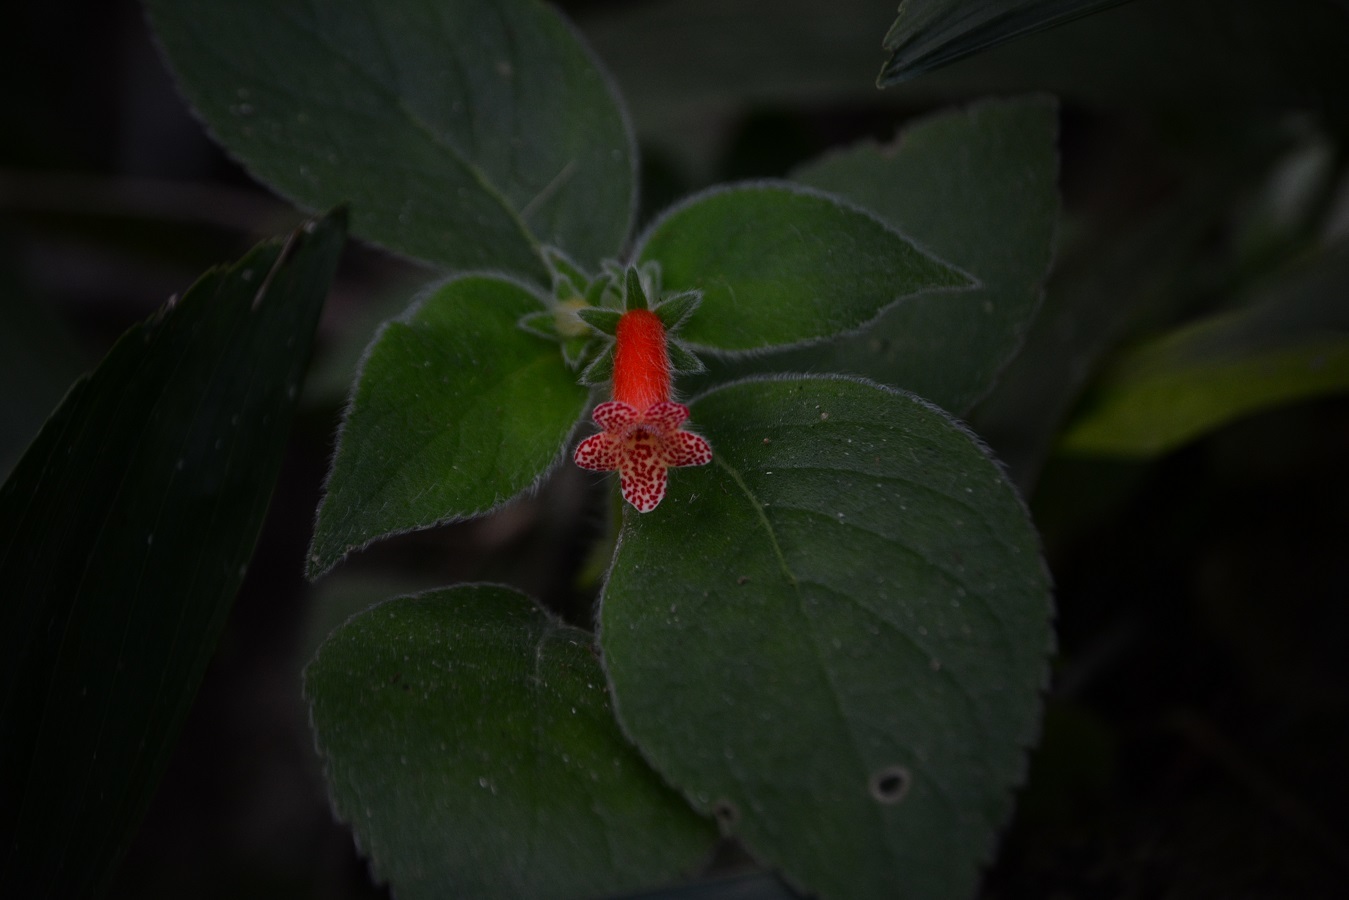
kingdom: Plantae
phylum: Tracheophyta
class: Magnoliopsida
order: Lamiales
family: Gesneriaceae
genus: Kohleria
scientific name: Kohleria rugata
